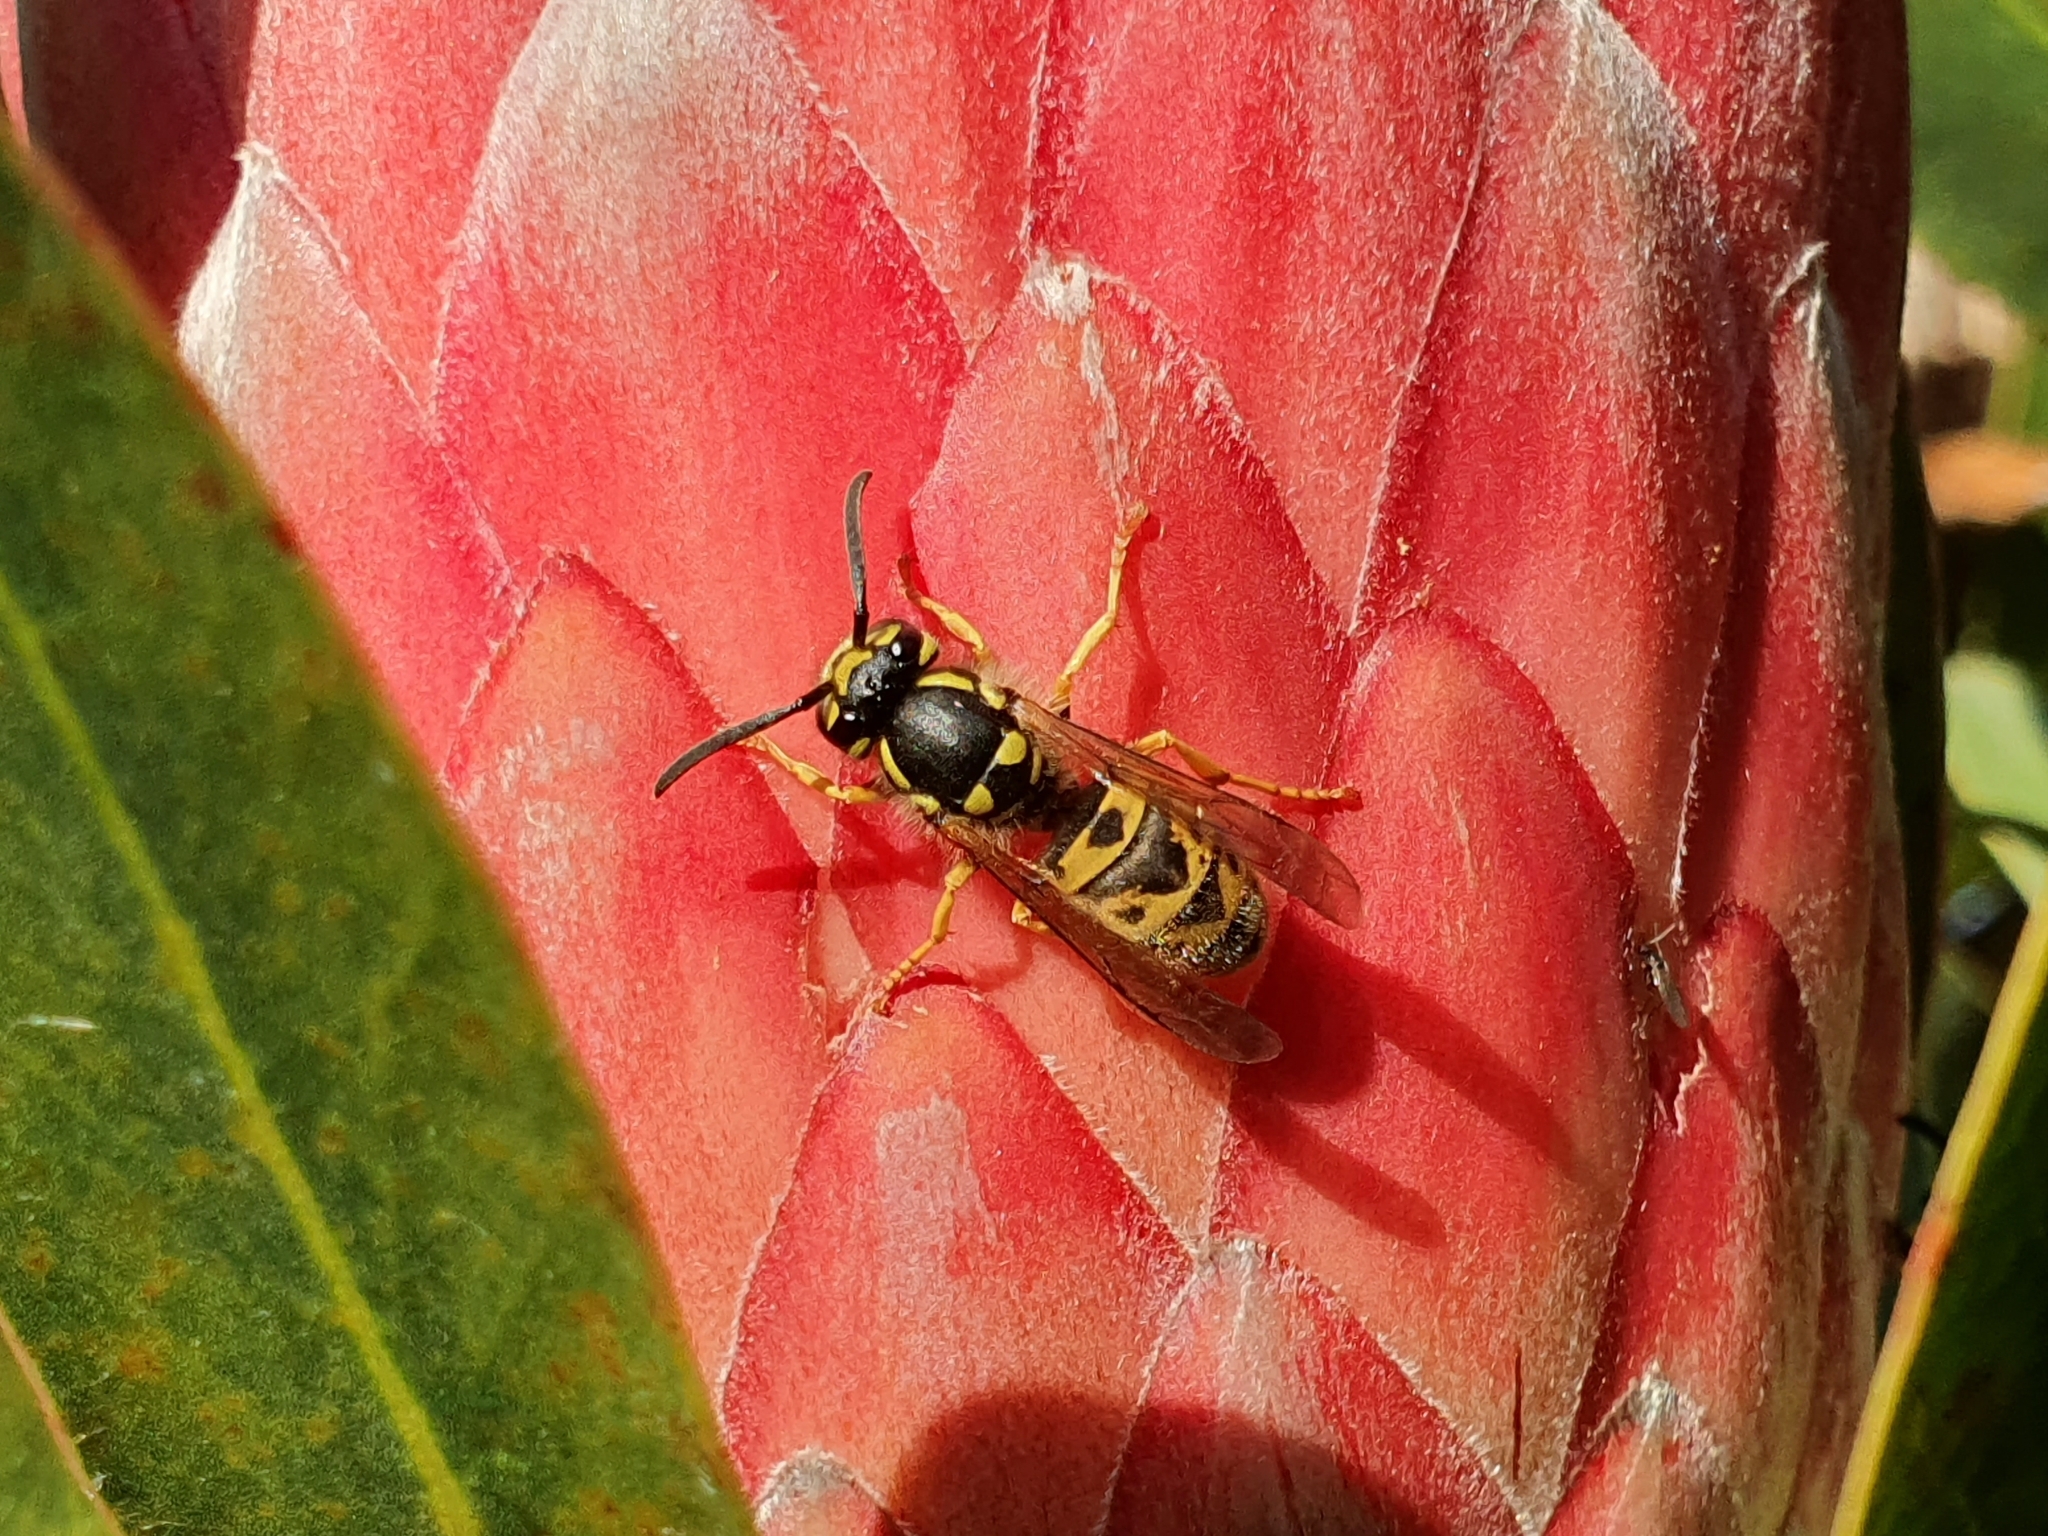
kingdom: Animalia
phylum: Arthropoda
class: Insecta
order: Hymenoptera
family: Vespidae
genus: Vespula
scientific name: Vespula germanica
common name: German wasp
